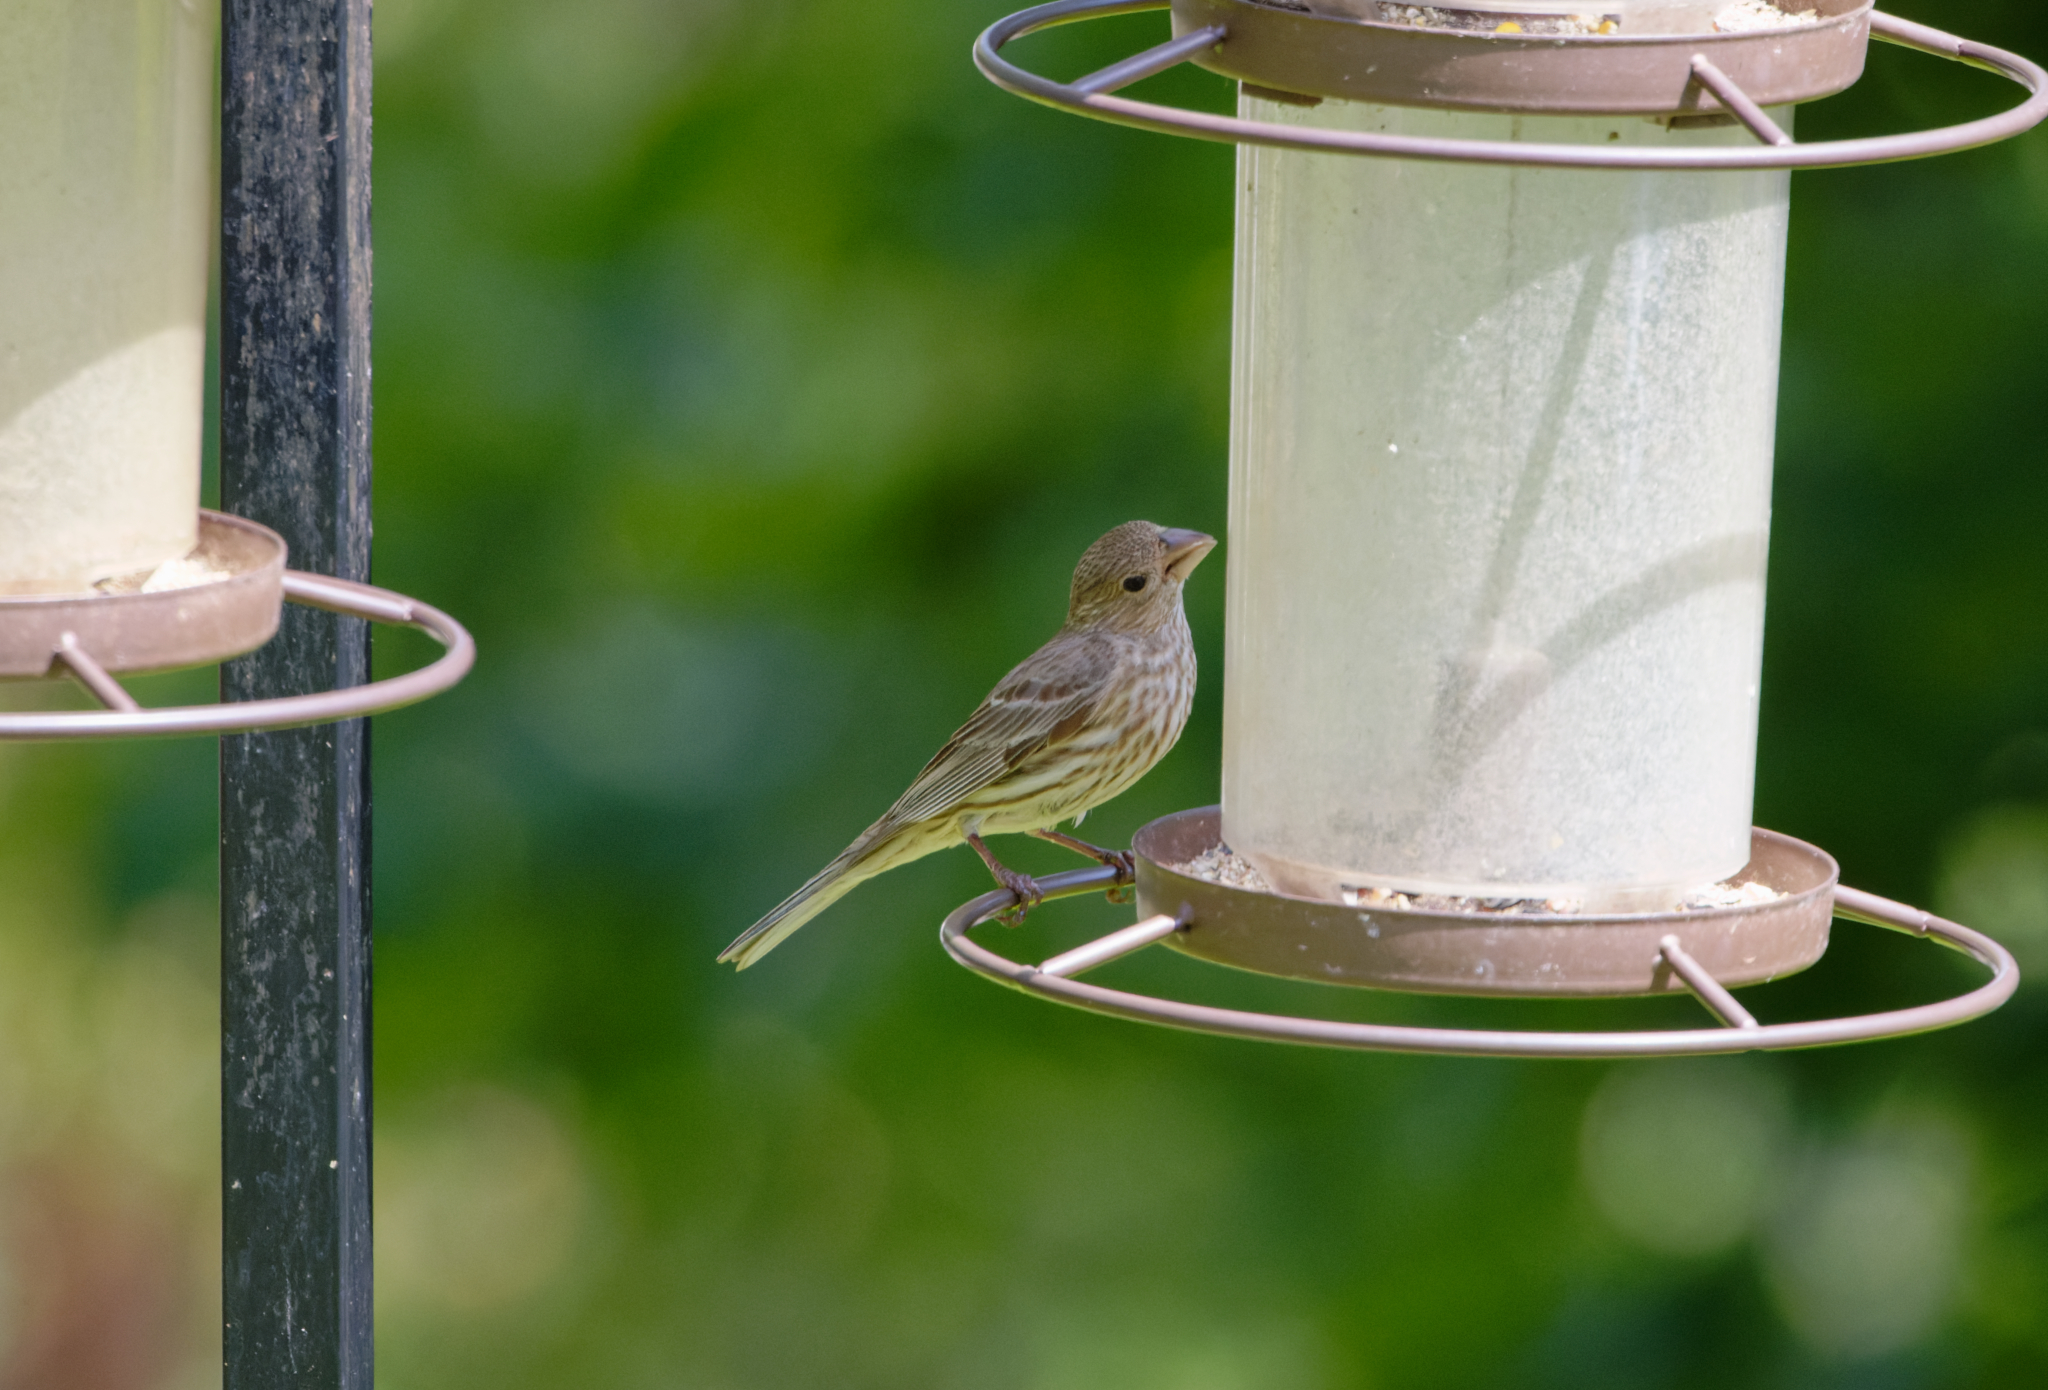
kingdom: Animalia
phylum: Chordata
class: Aves
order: Passeriformes
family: Fringillidae
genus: Haemorhous
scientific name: Haemorhous mexicanus
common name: House finch
